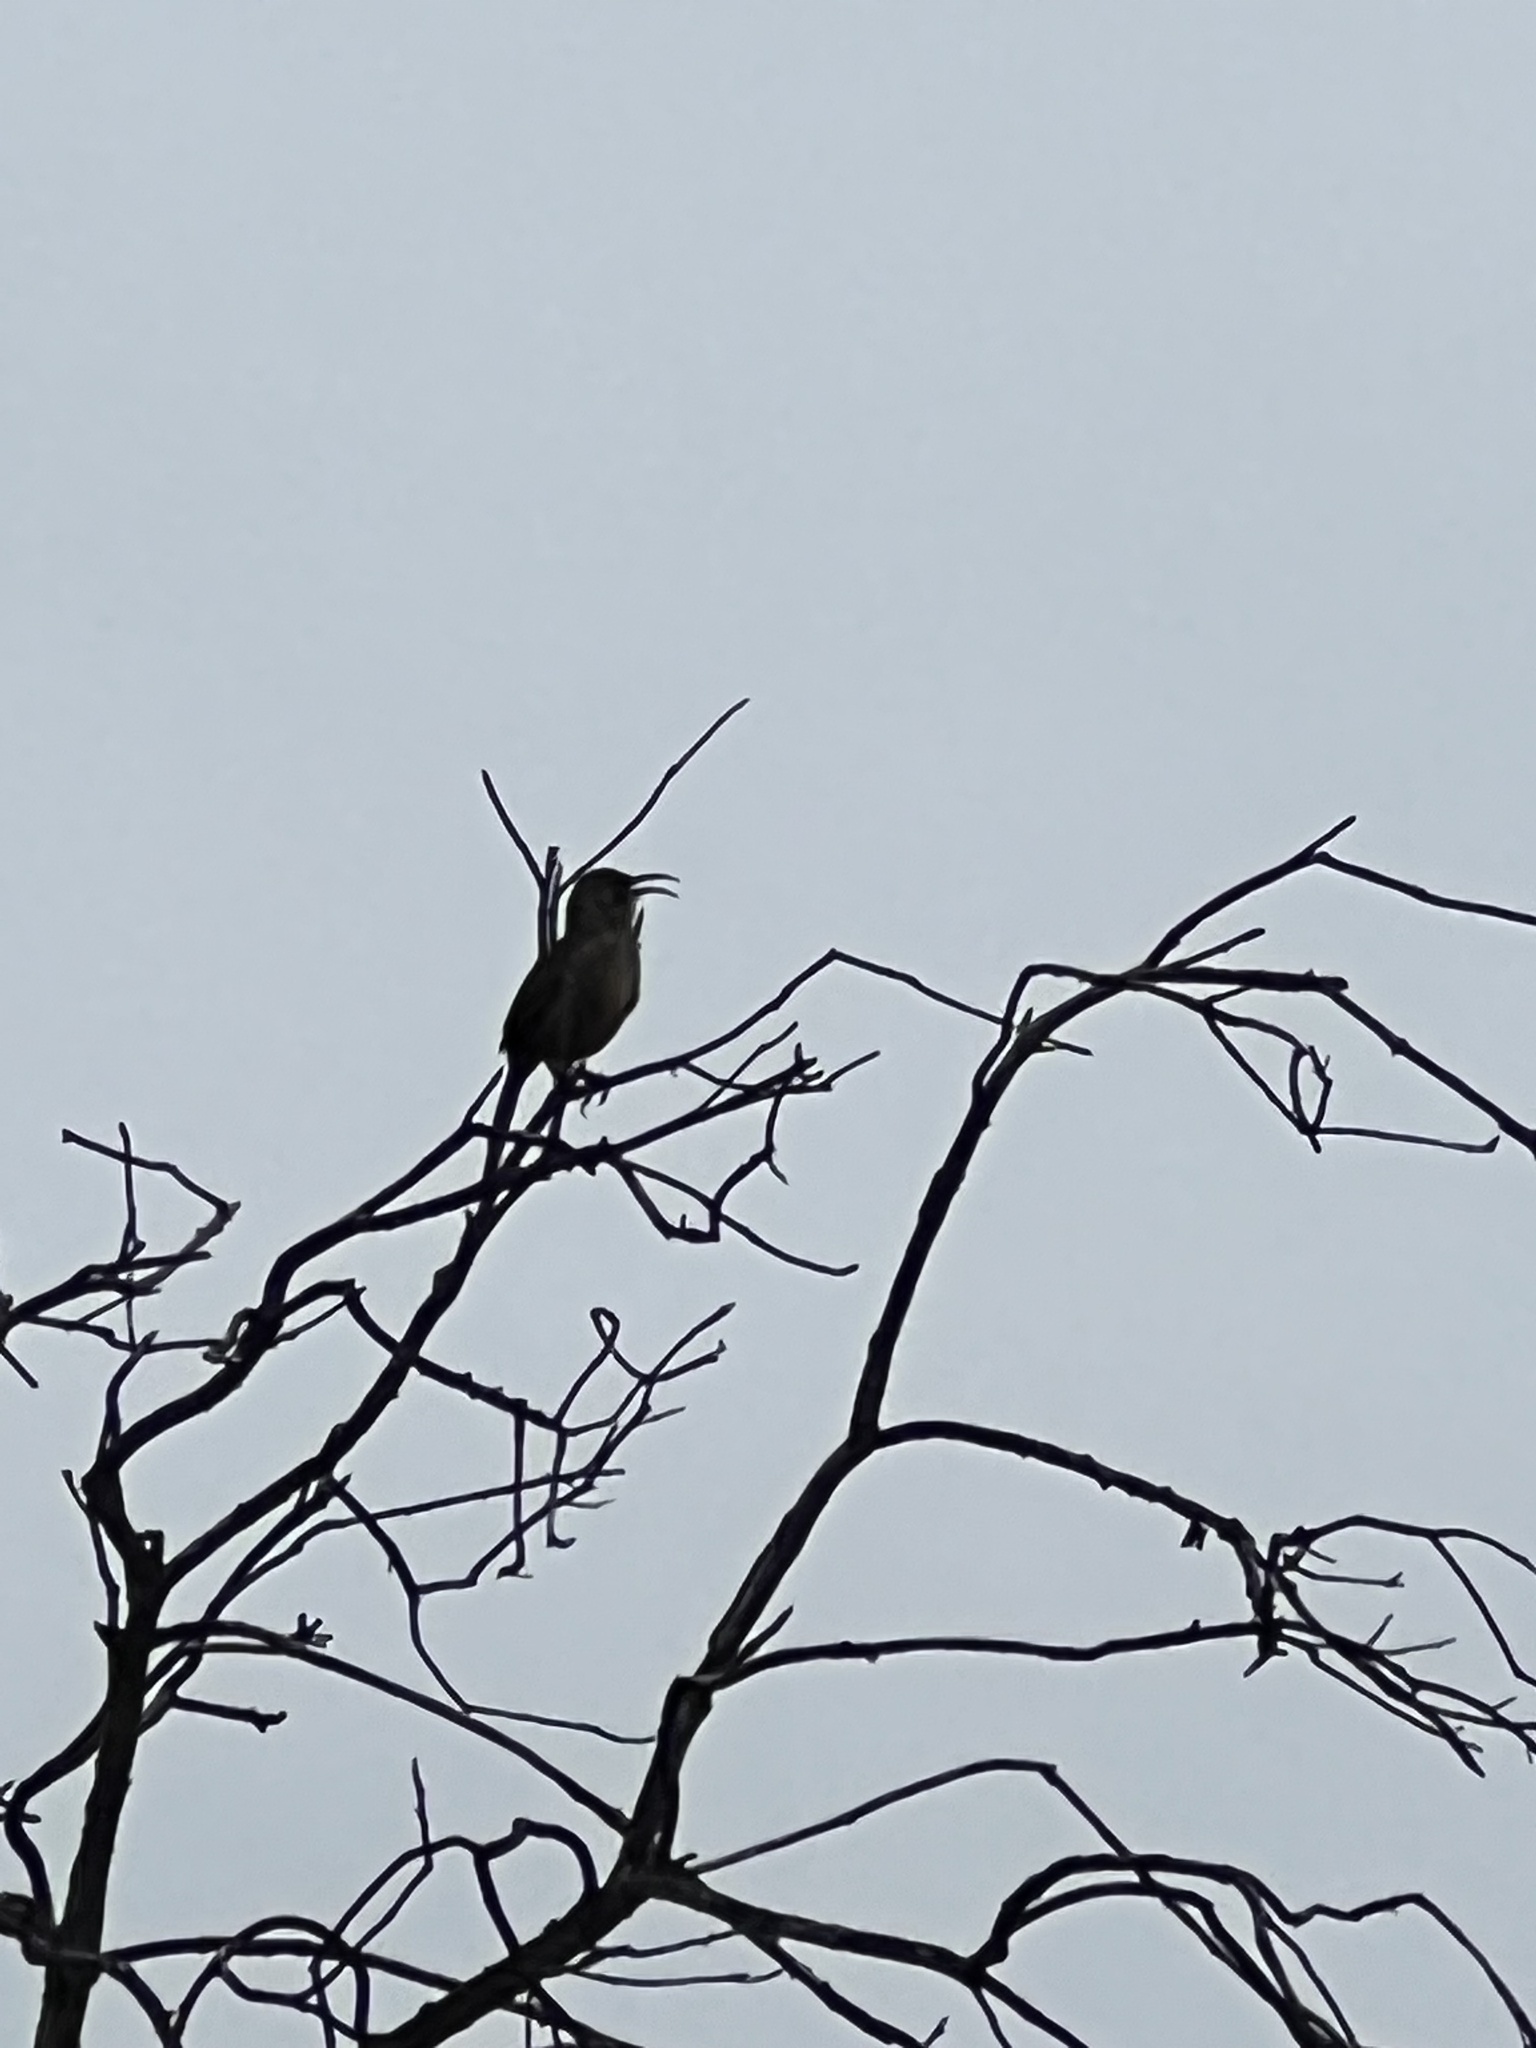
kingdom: Animalia
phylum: Chordata
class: Aves
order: Passeriformes
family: Mimidae
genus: Toxostoma
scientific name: Toxostoma redivivum
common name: California thrasher
